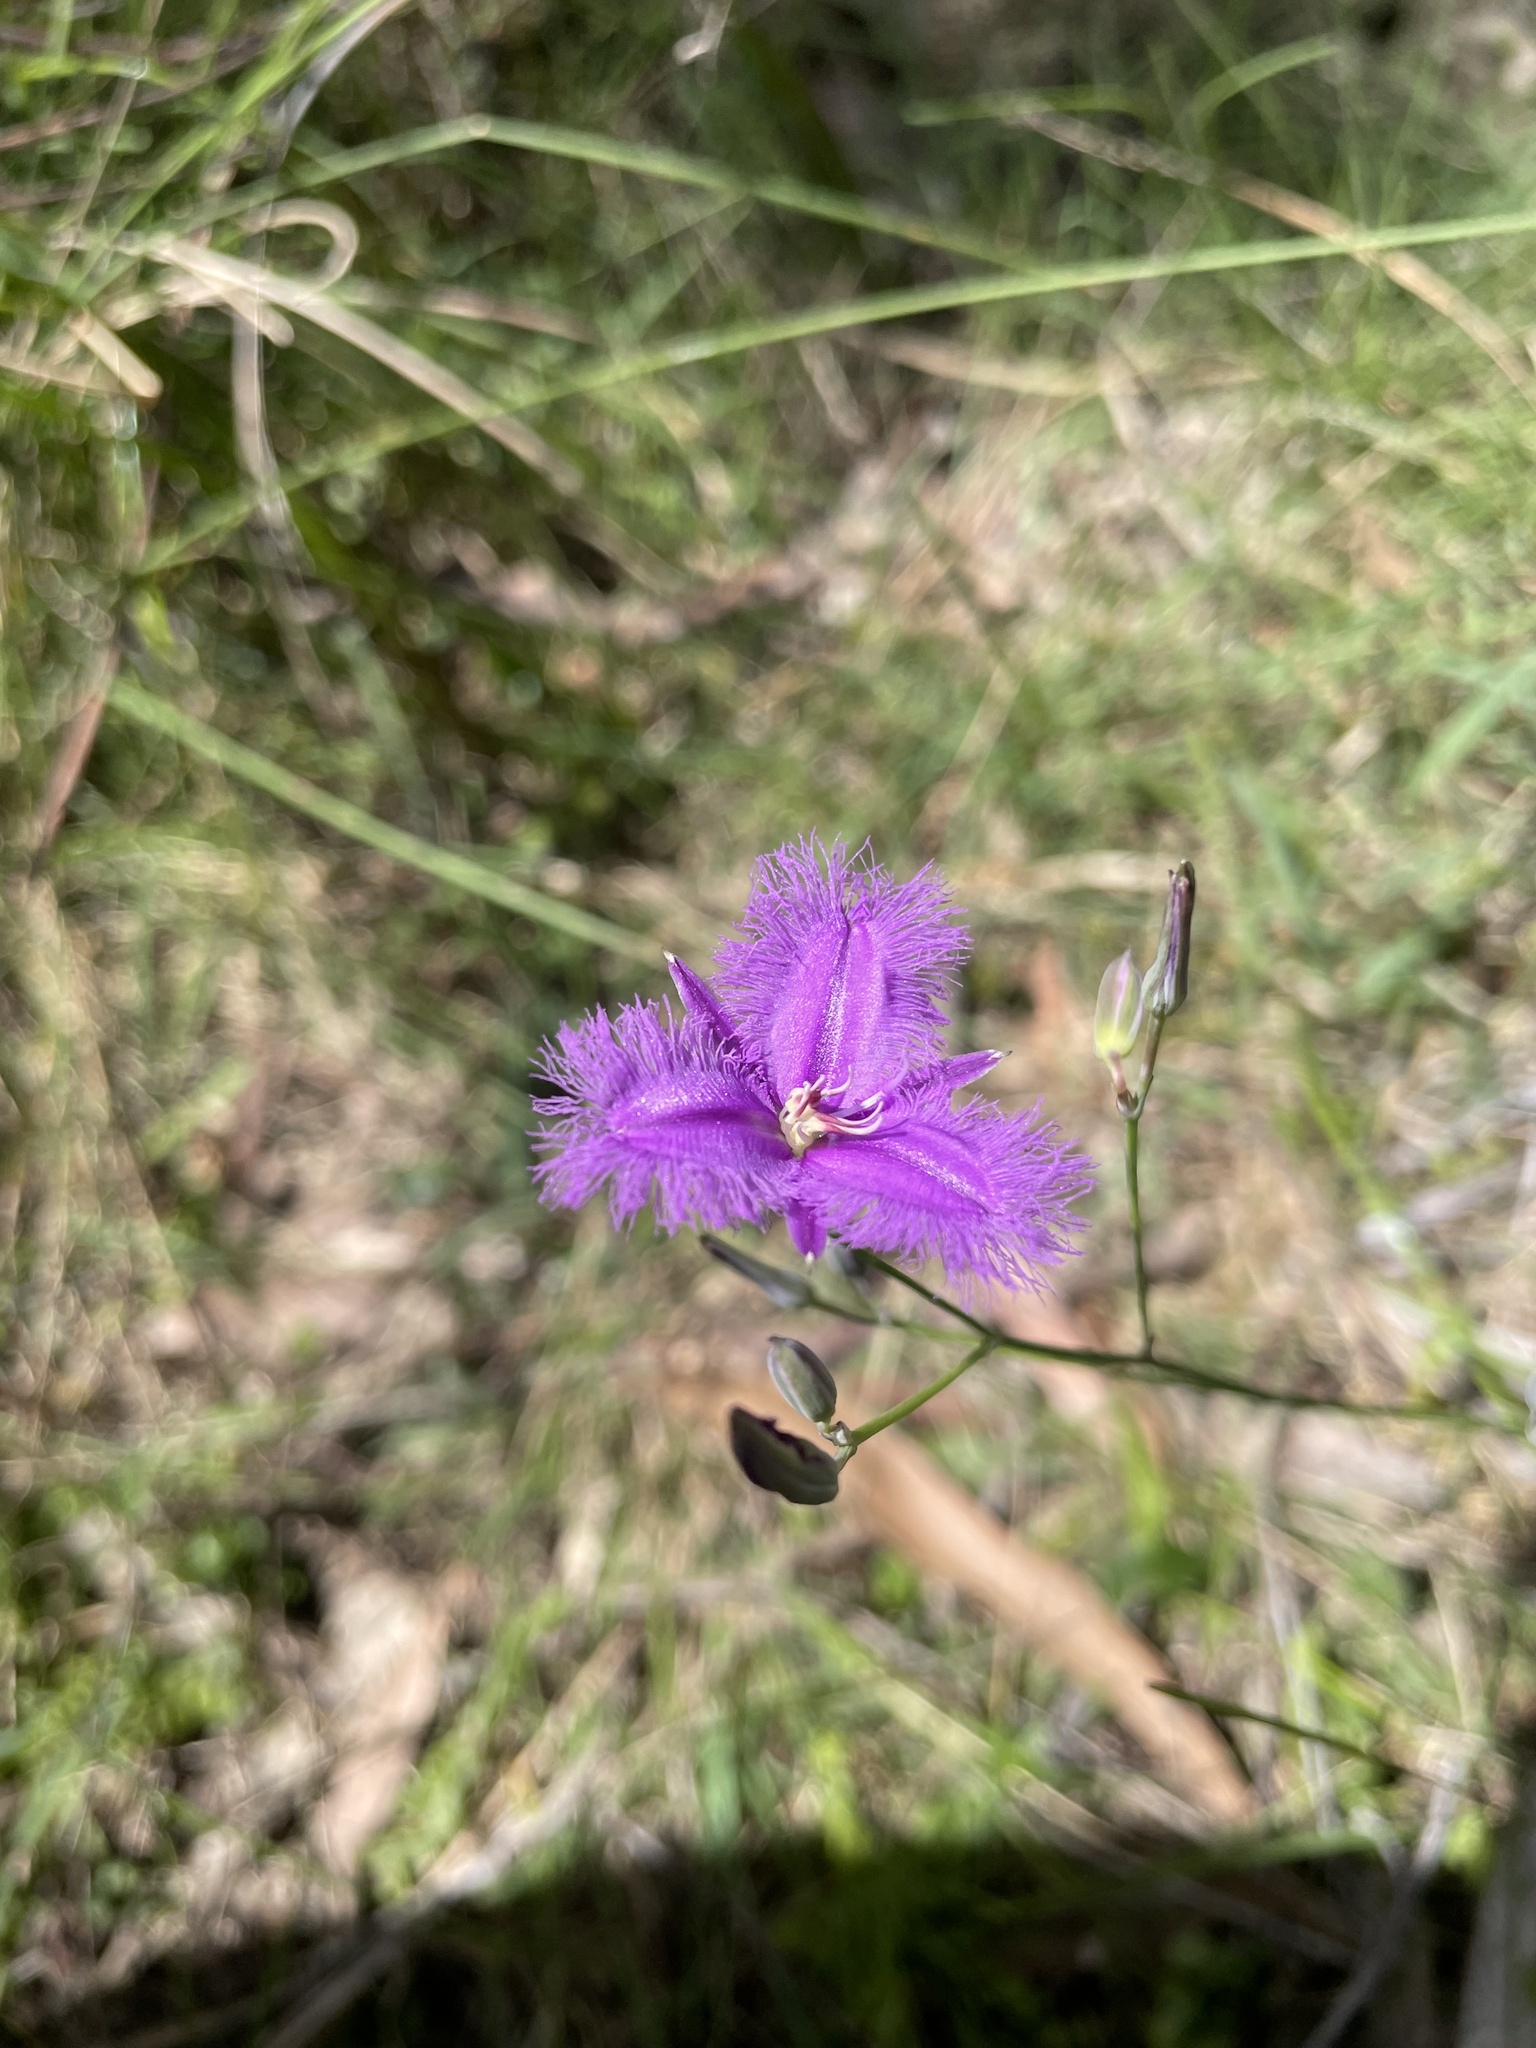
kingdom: Plantae
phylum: Tracheophyta
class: Liliopsida
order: Asparagales
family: Asparagaceae
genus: Thysanotus
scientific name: Thysanotus tuberosus
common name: Common fringed-lily
